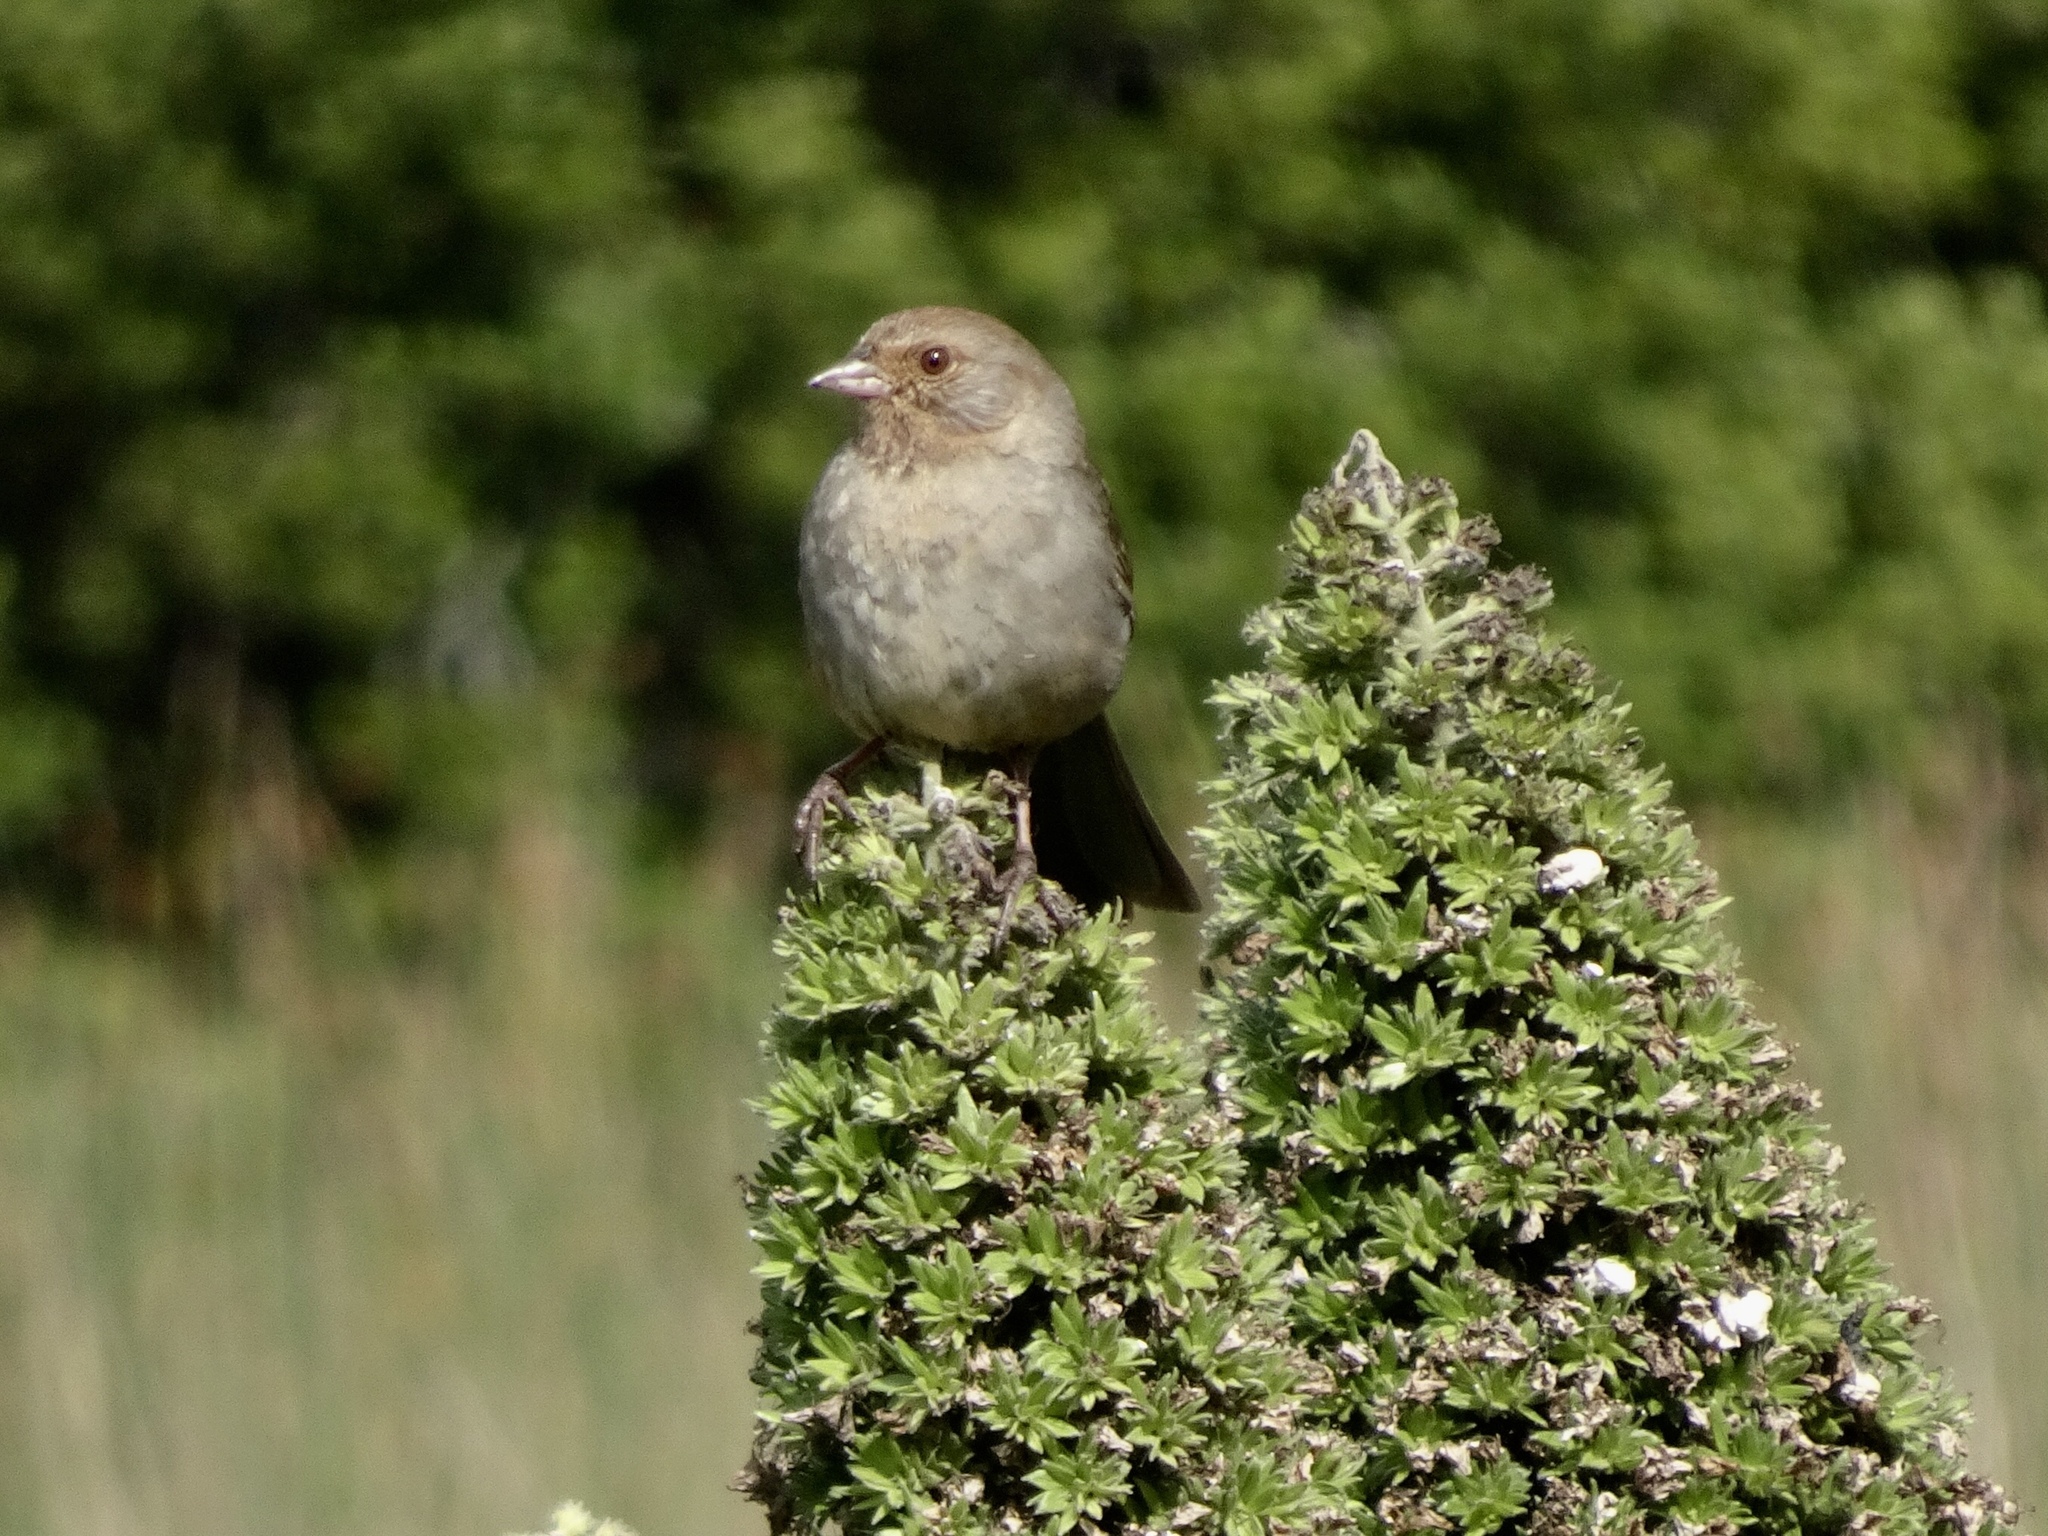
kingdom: Animalia
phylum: Chordata
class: Aves
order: Passeriformes
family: Passerellidae
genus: Melozone
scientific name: Melozone crissalis
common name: California towhee
